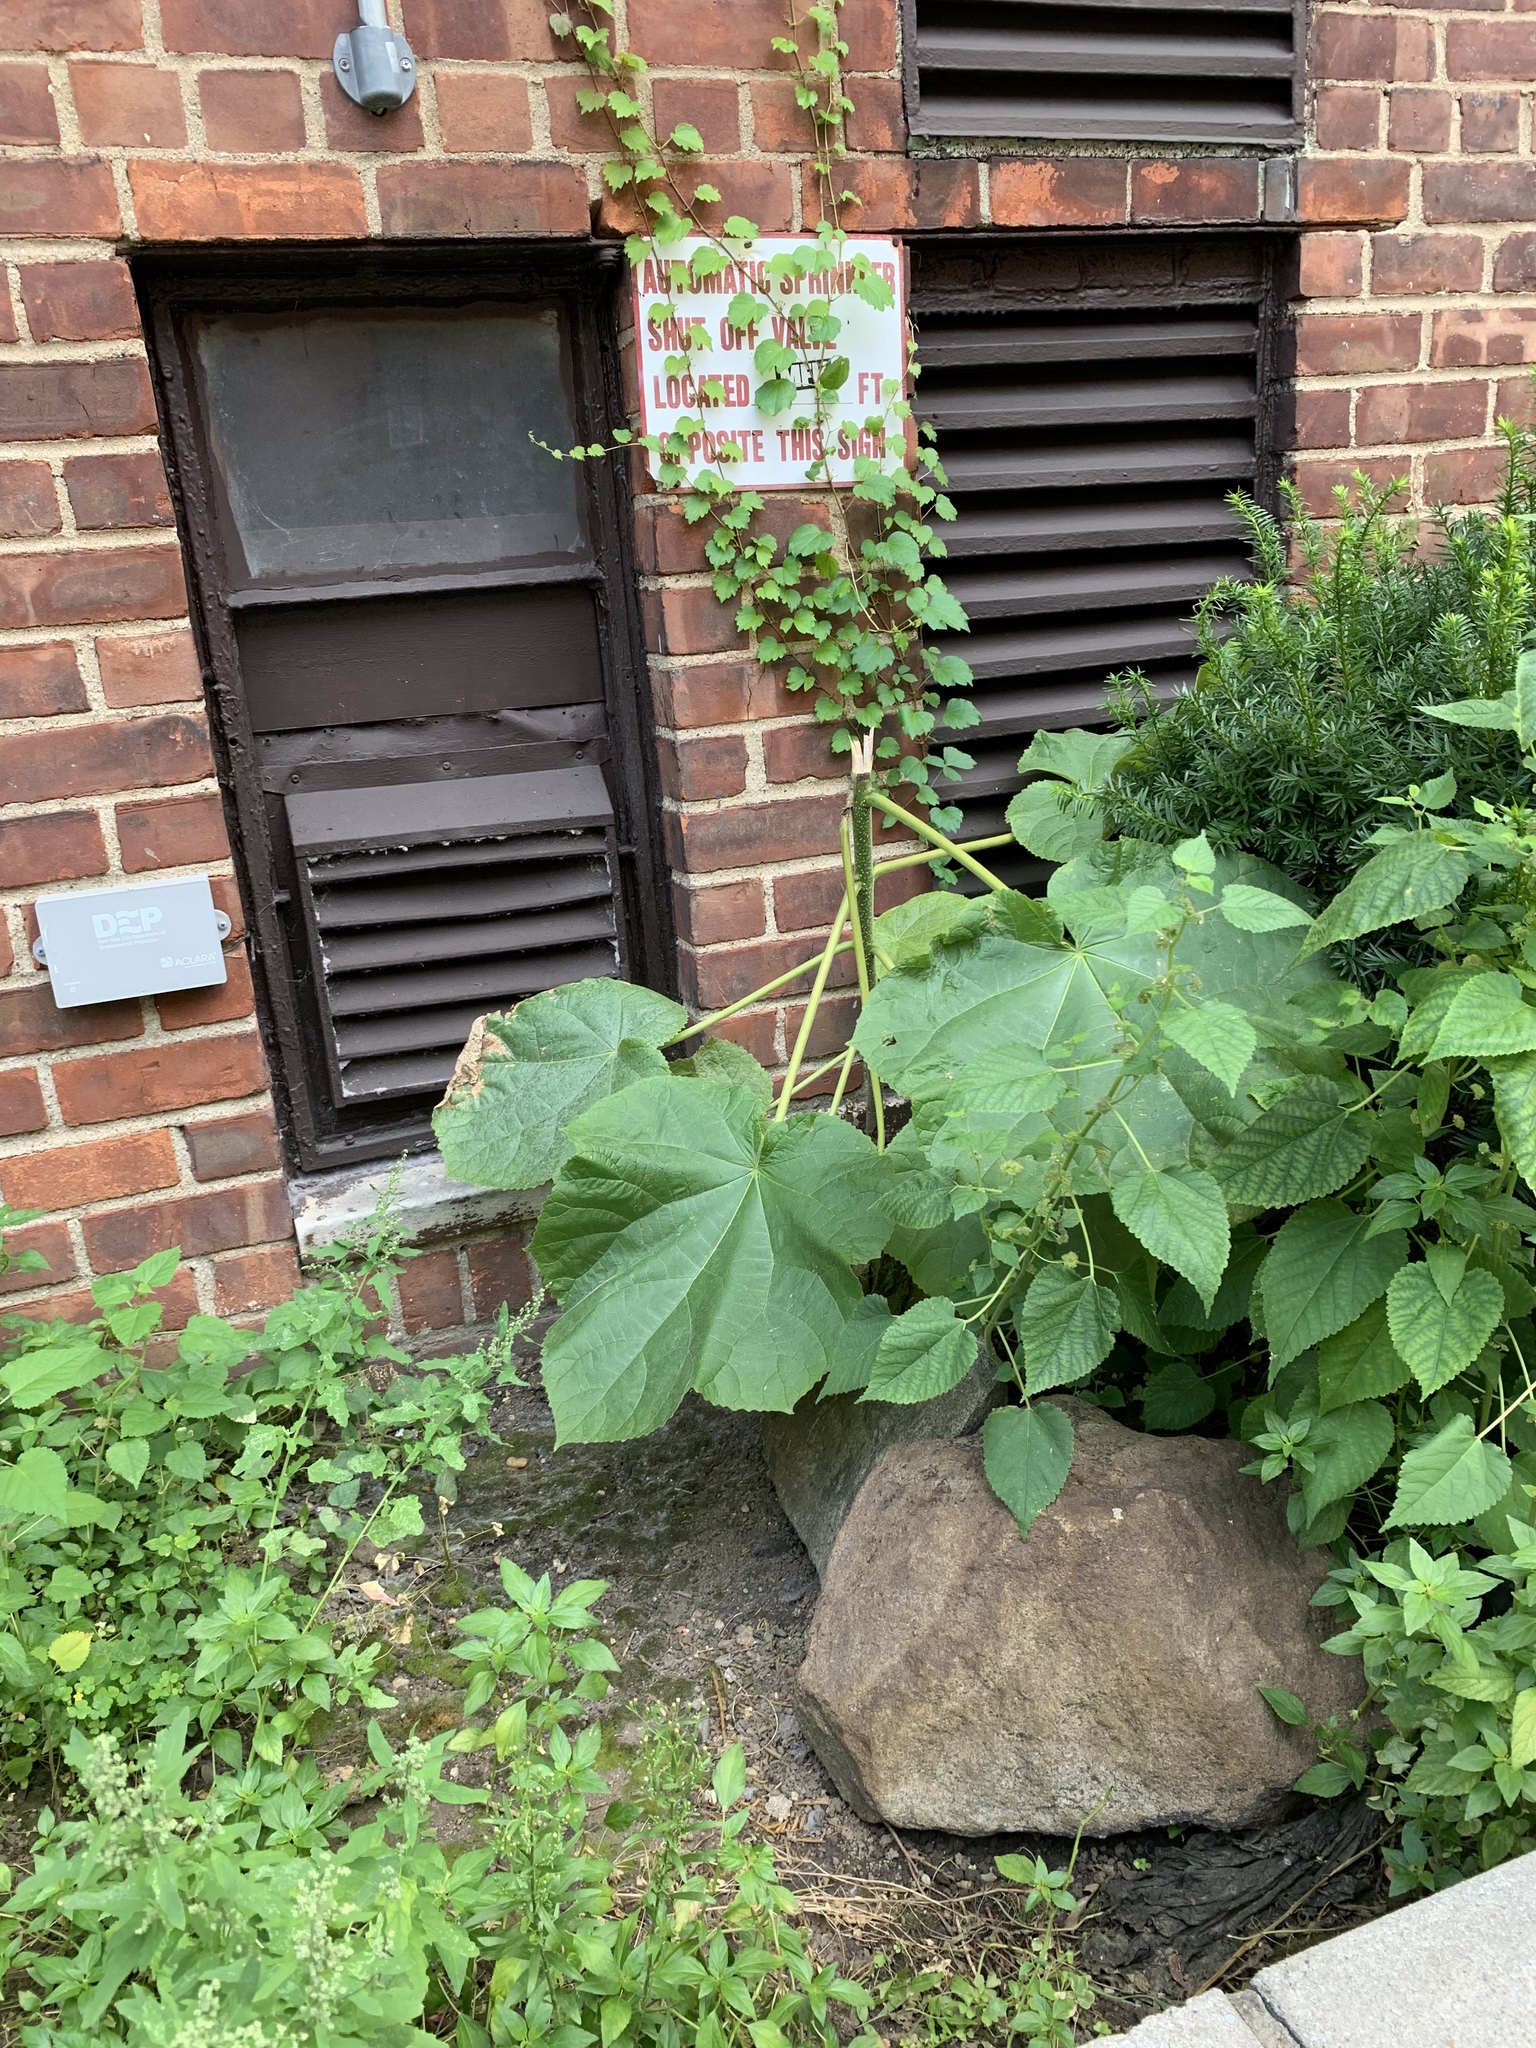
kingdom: Plantae
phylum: Tracheophyta
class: Magnoliopsida
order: Lamiales
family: Paulowniaceae
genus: Paulownia
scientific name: Paulownia tomentosa
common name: Foxglove-tree
